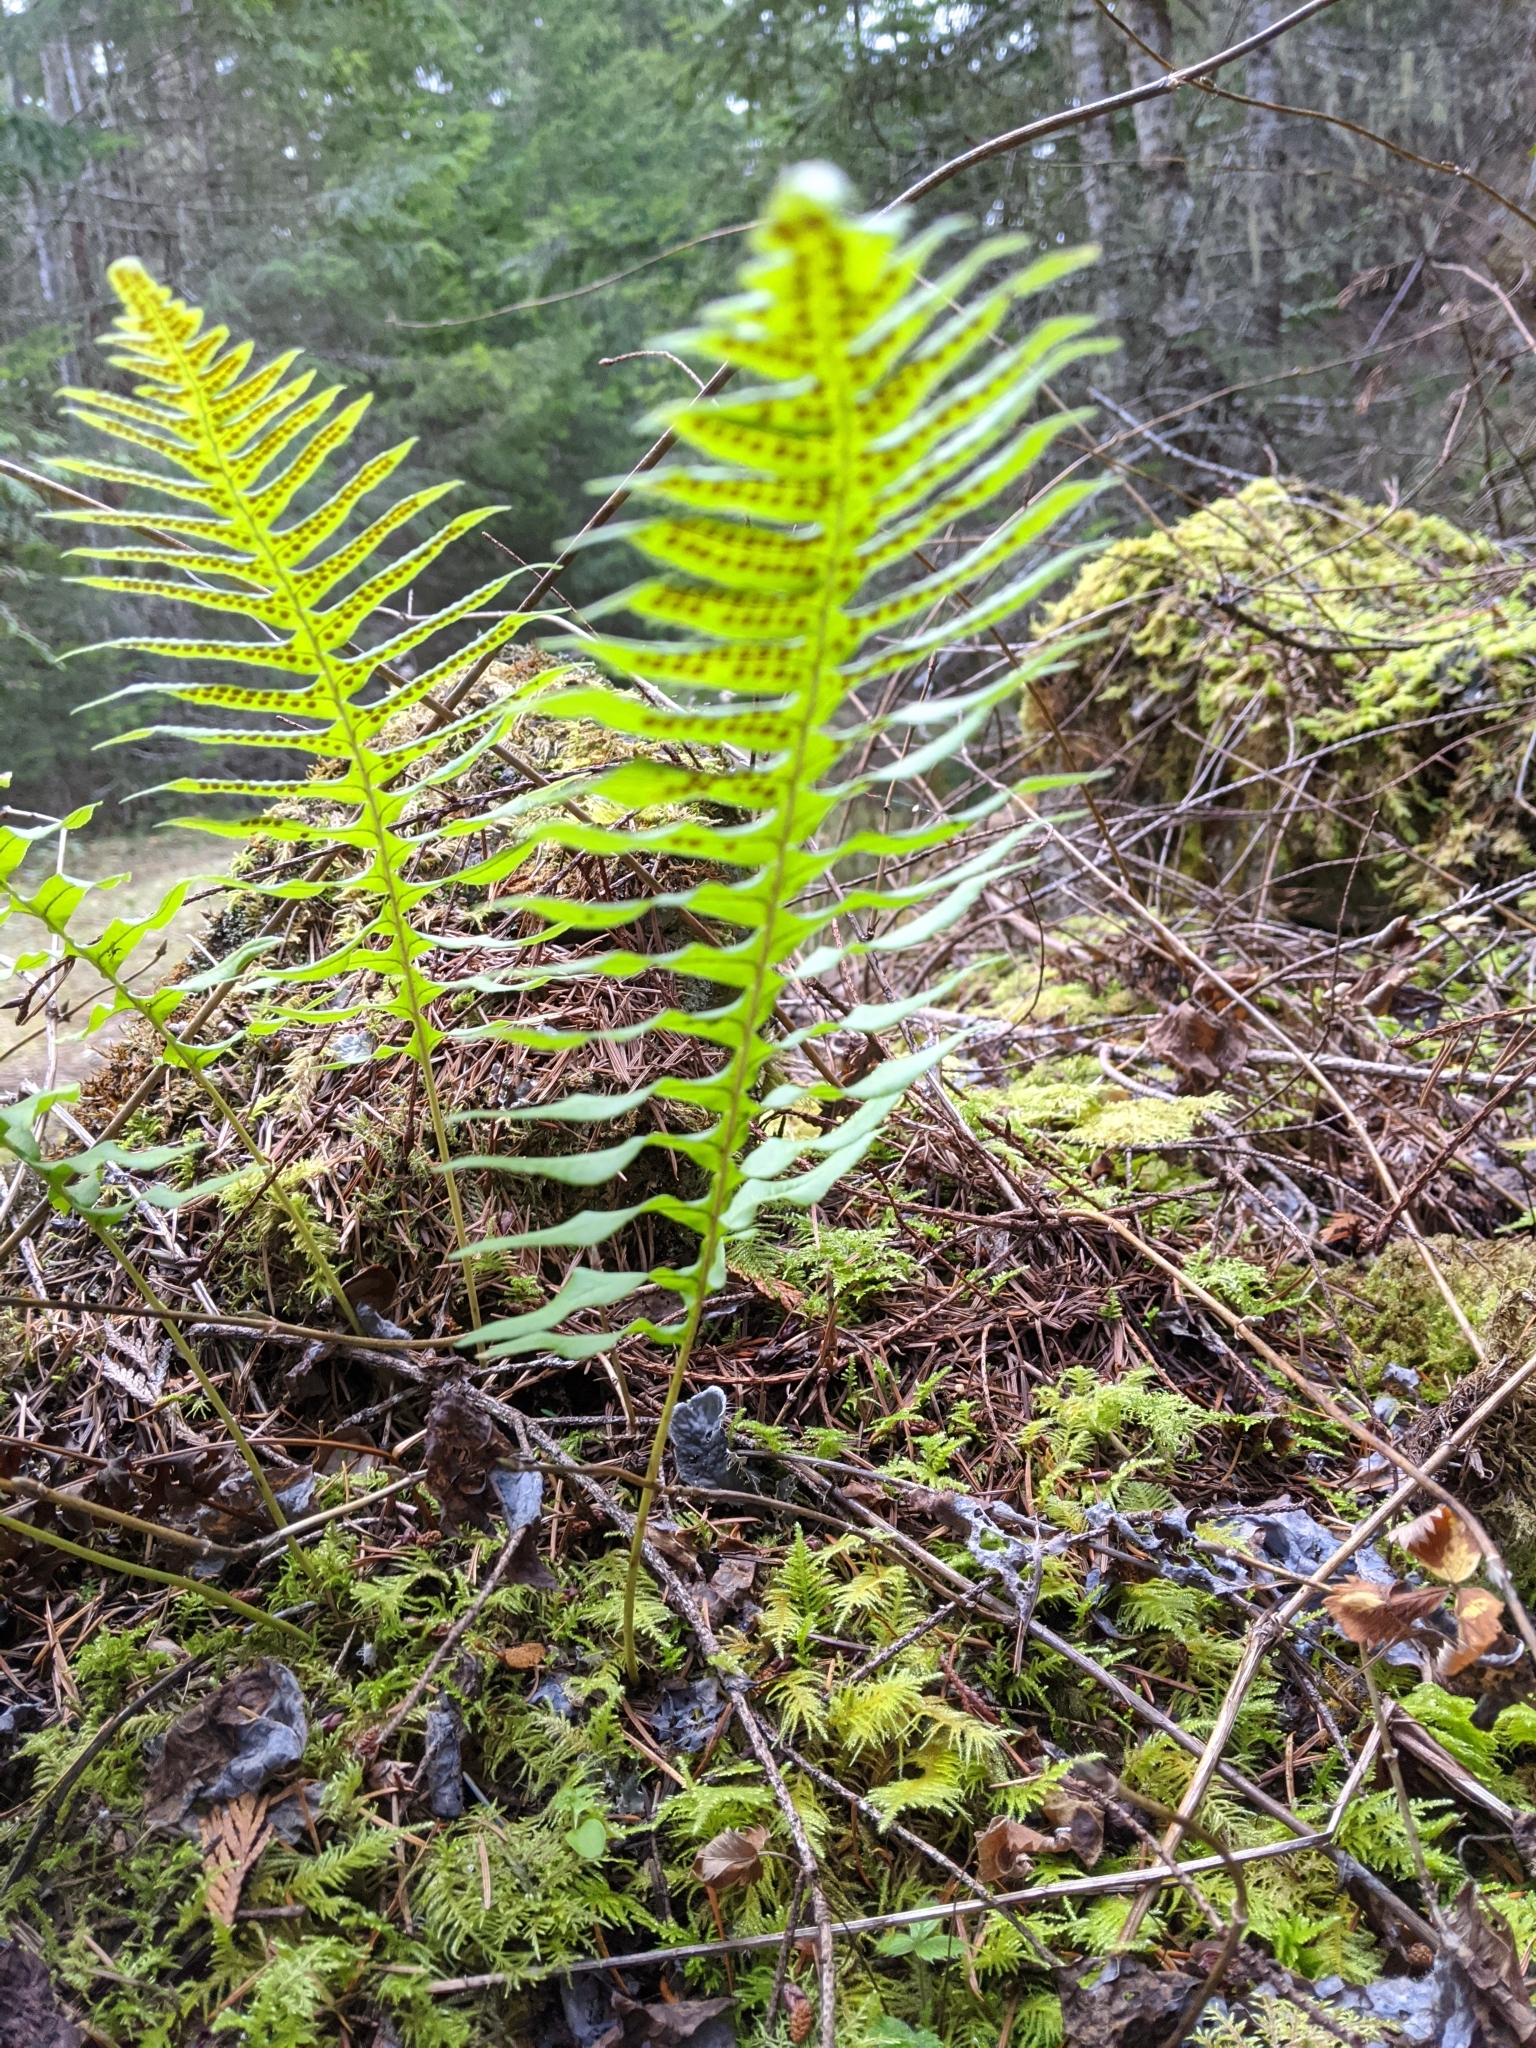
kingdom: Plantae
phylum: Tracheophyta
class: Polypodiopsida
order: Polypodiales
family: Polypodiaceae
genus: Polypodium
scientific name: Polypodium glycyrrhiza
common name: Licorice fern
